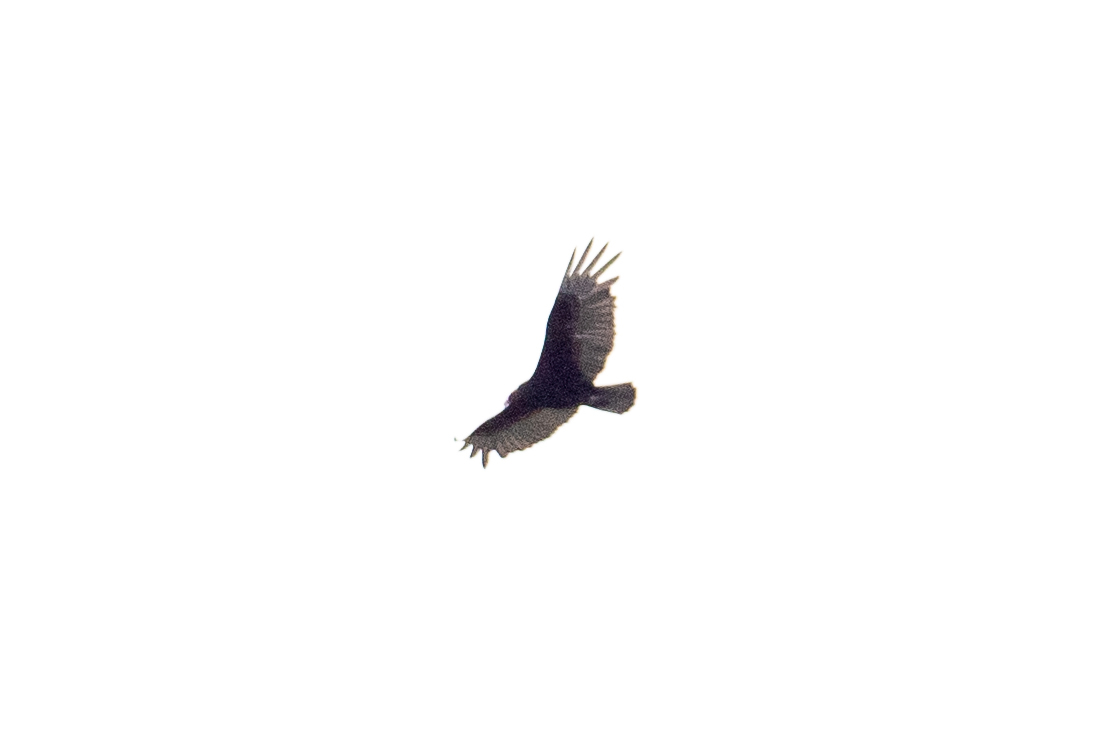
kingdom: Animalia
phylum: Chordata
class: Aves
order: Accipitriformes
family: Cathartidae
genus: Cathartes
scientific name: Cathartes aura
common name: Turkey vulture
